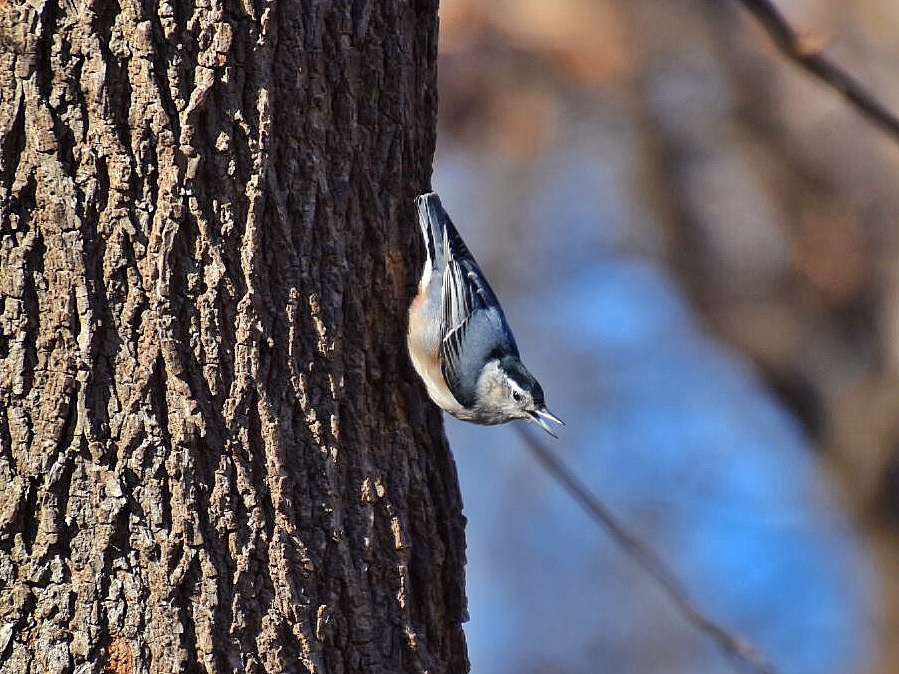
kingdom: Animalia
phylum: Chordata
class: Aves
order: Passeriformes
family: Sittidae
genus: Sitta
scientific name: Sitta carolinensis
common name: White-breasted nuthatch
